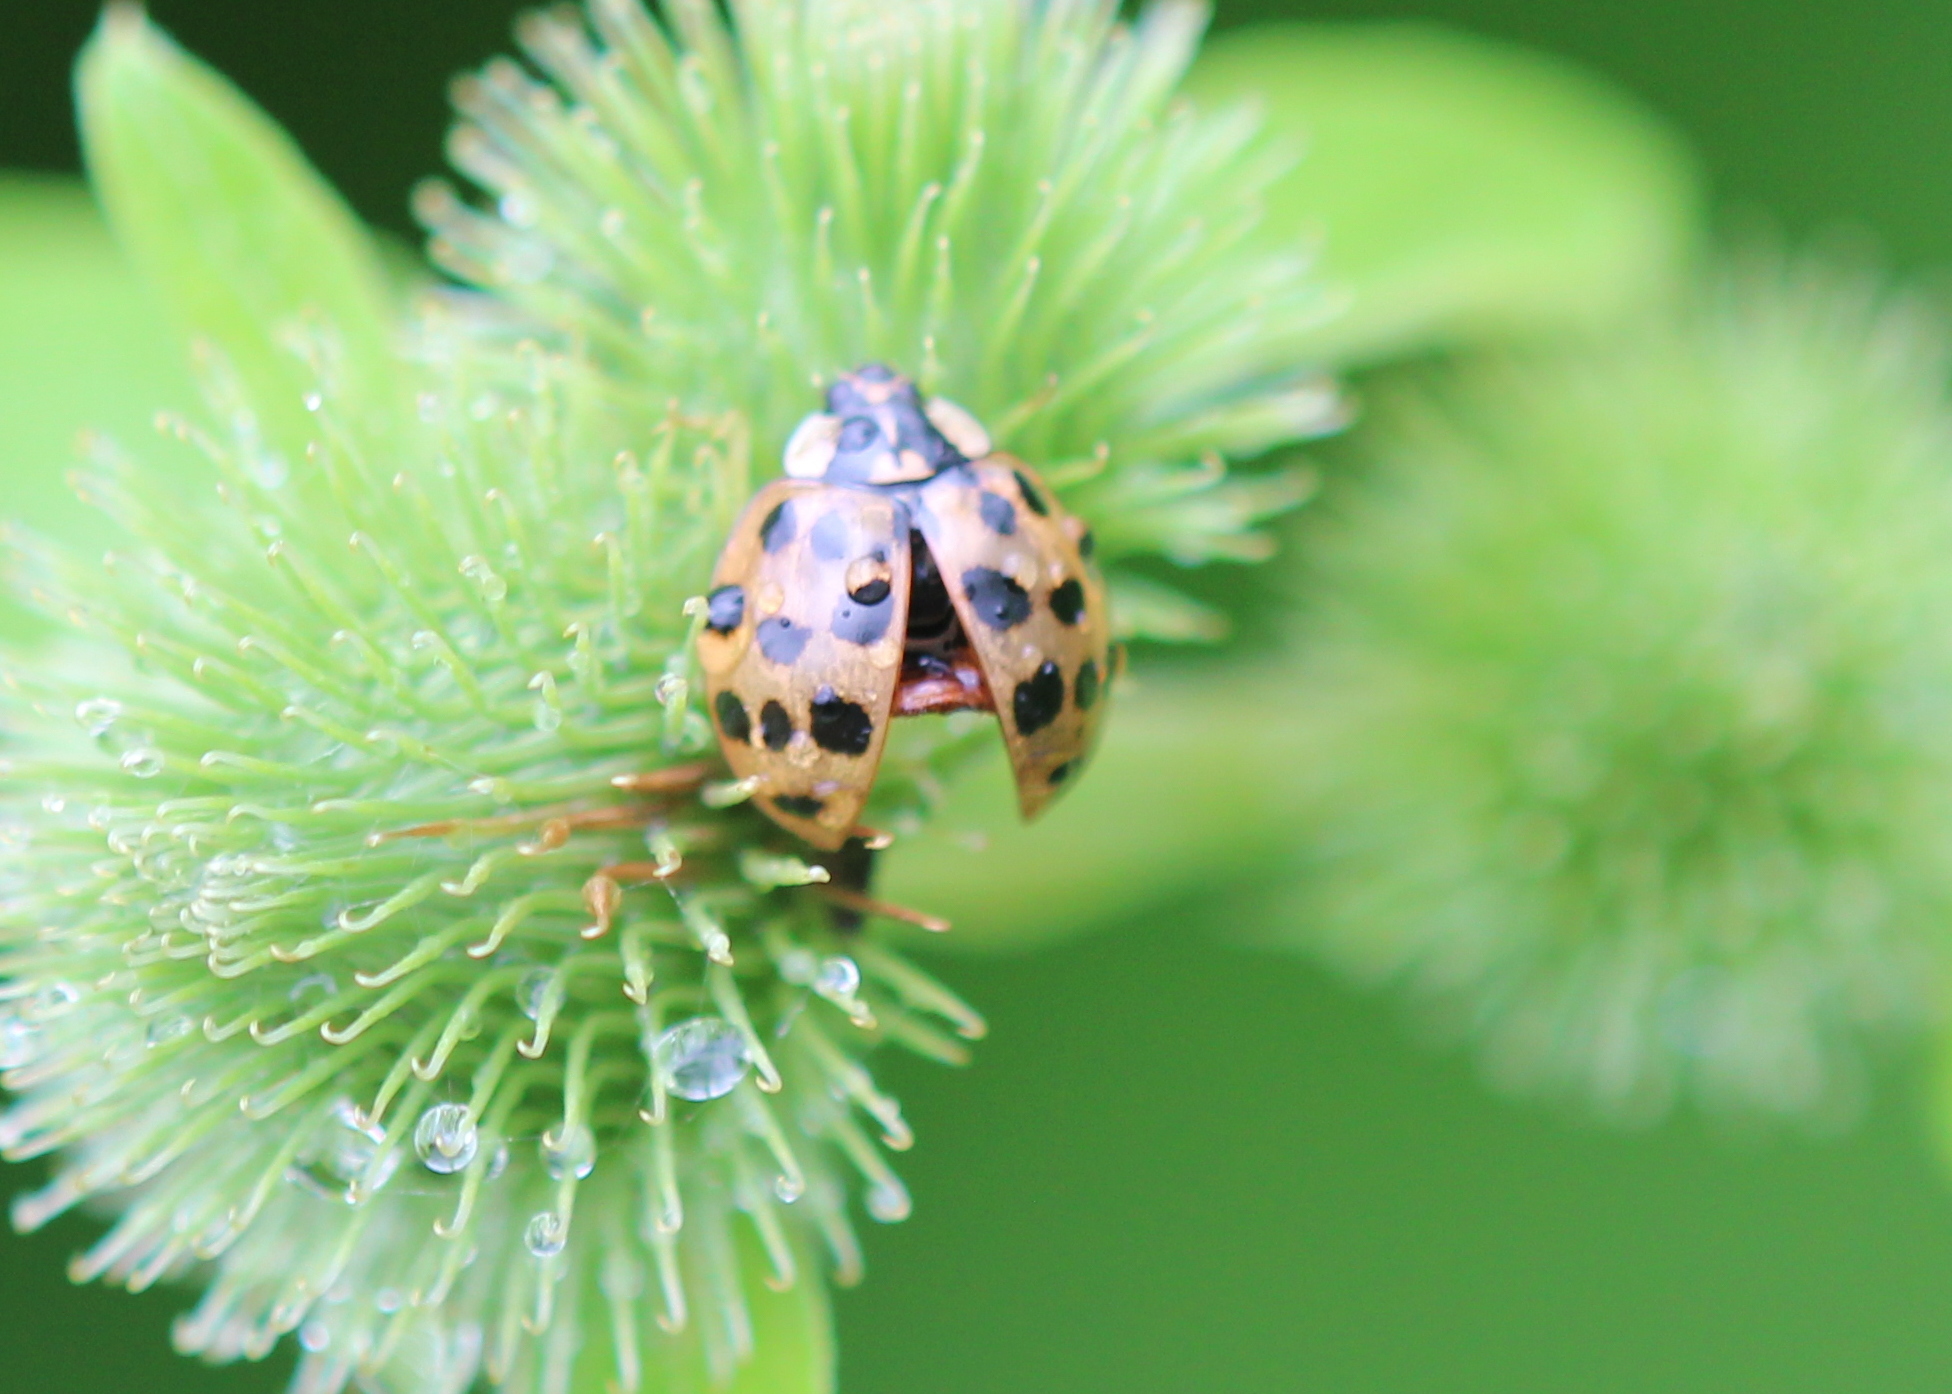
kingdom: Animalia
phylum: Arthropoda
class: Insecta
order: Coleoptera
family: Coccinellidae
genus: Harmonia
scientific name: Harmonia axyridis
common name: Harlequin ladybird
